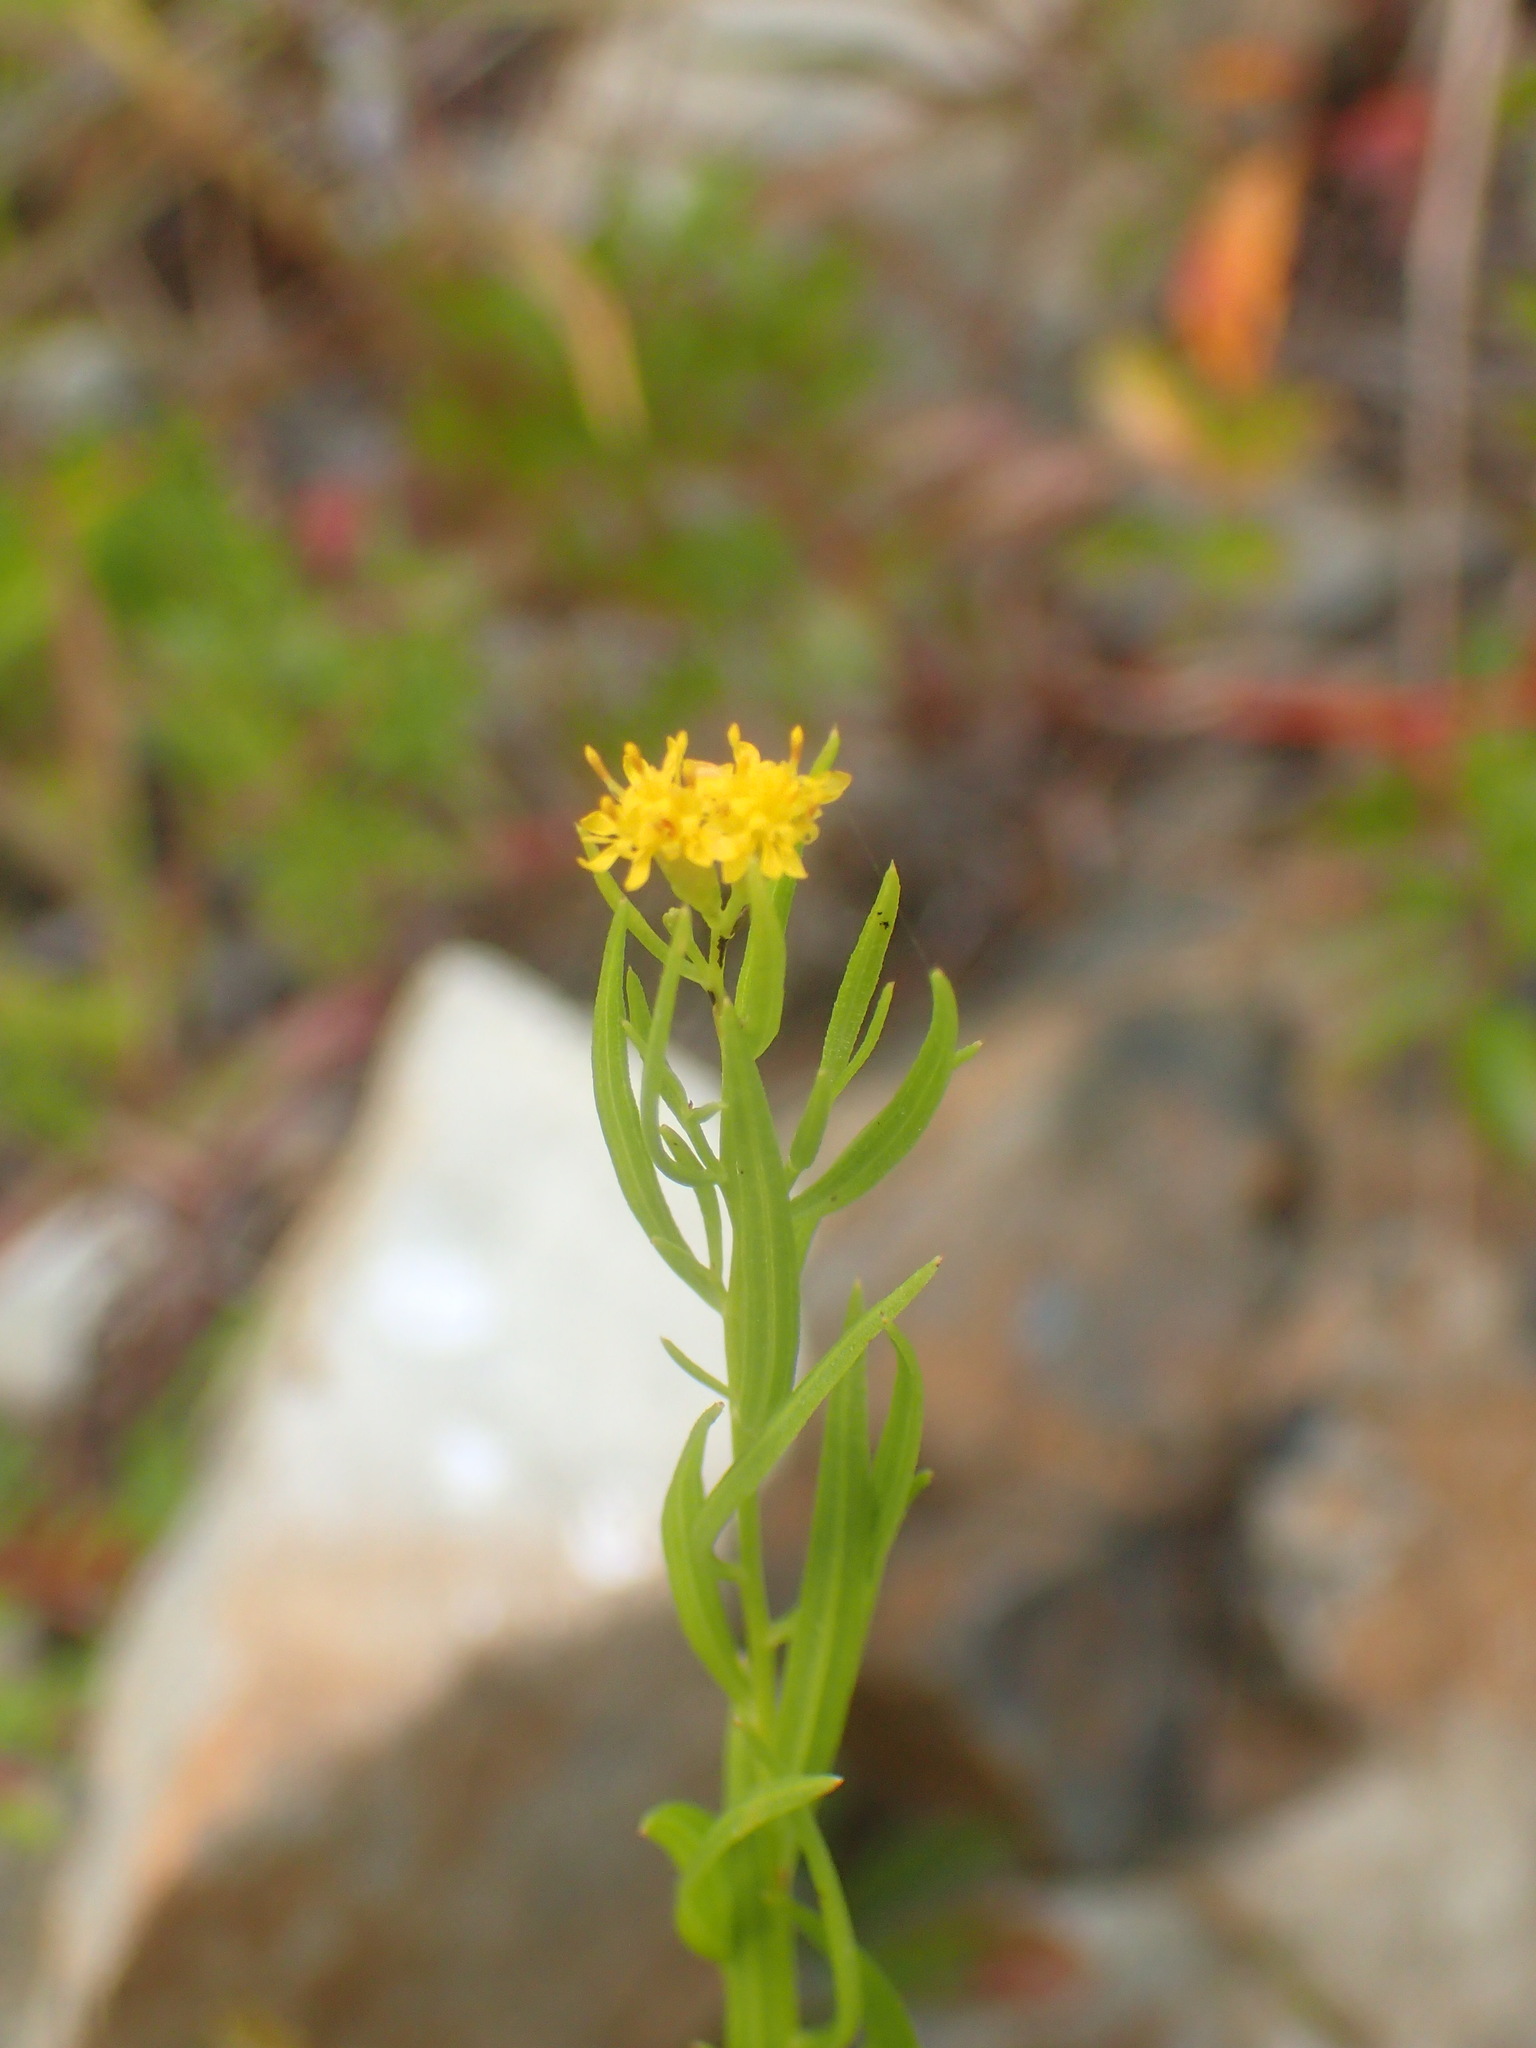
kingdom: Plantae
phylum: Tracheophyta
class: Magnoliopsida
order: Asterales
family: Asteraceae
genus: Euthamia
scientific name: Euthamia caroliniana
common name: Coastal plain goldentop
